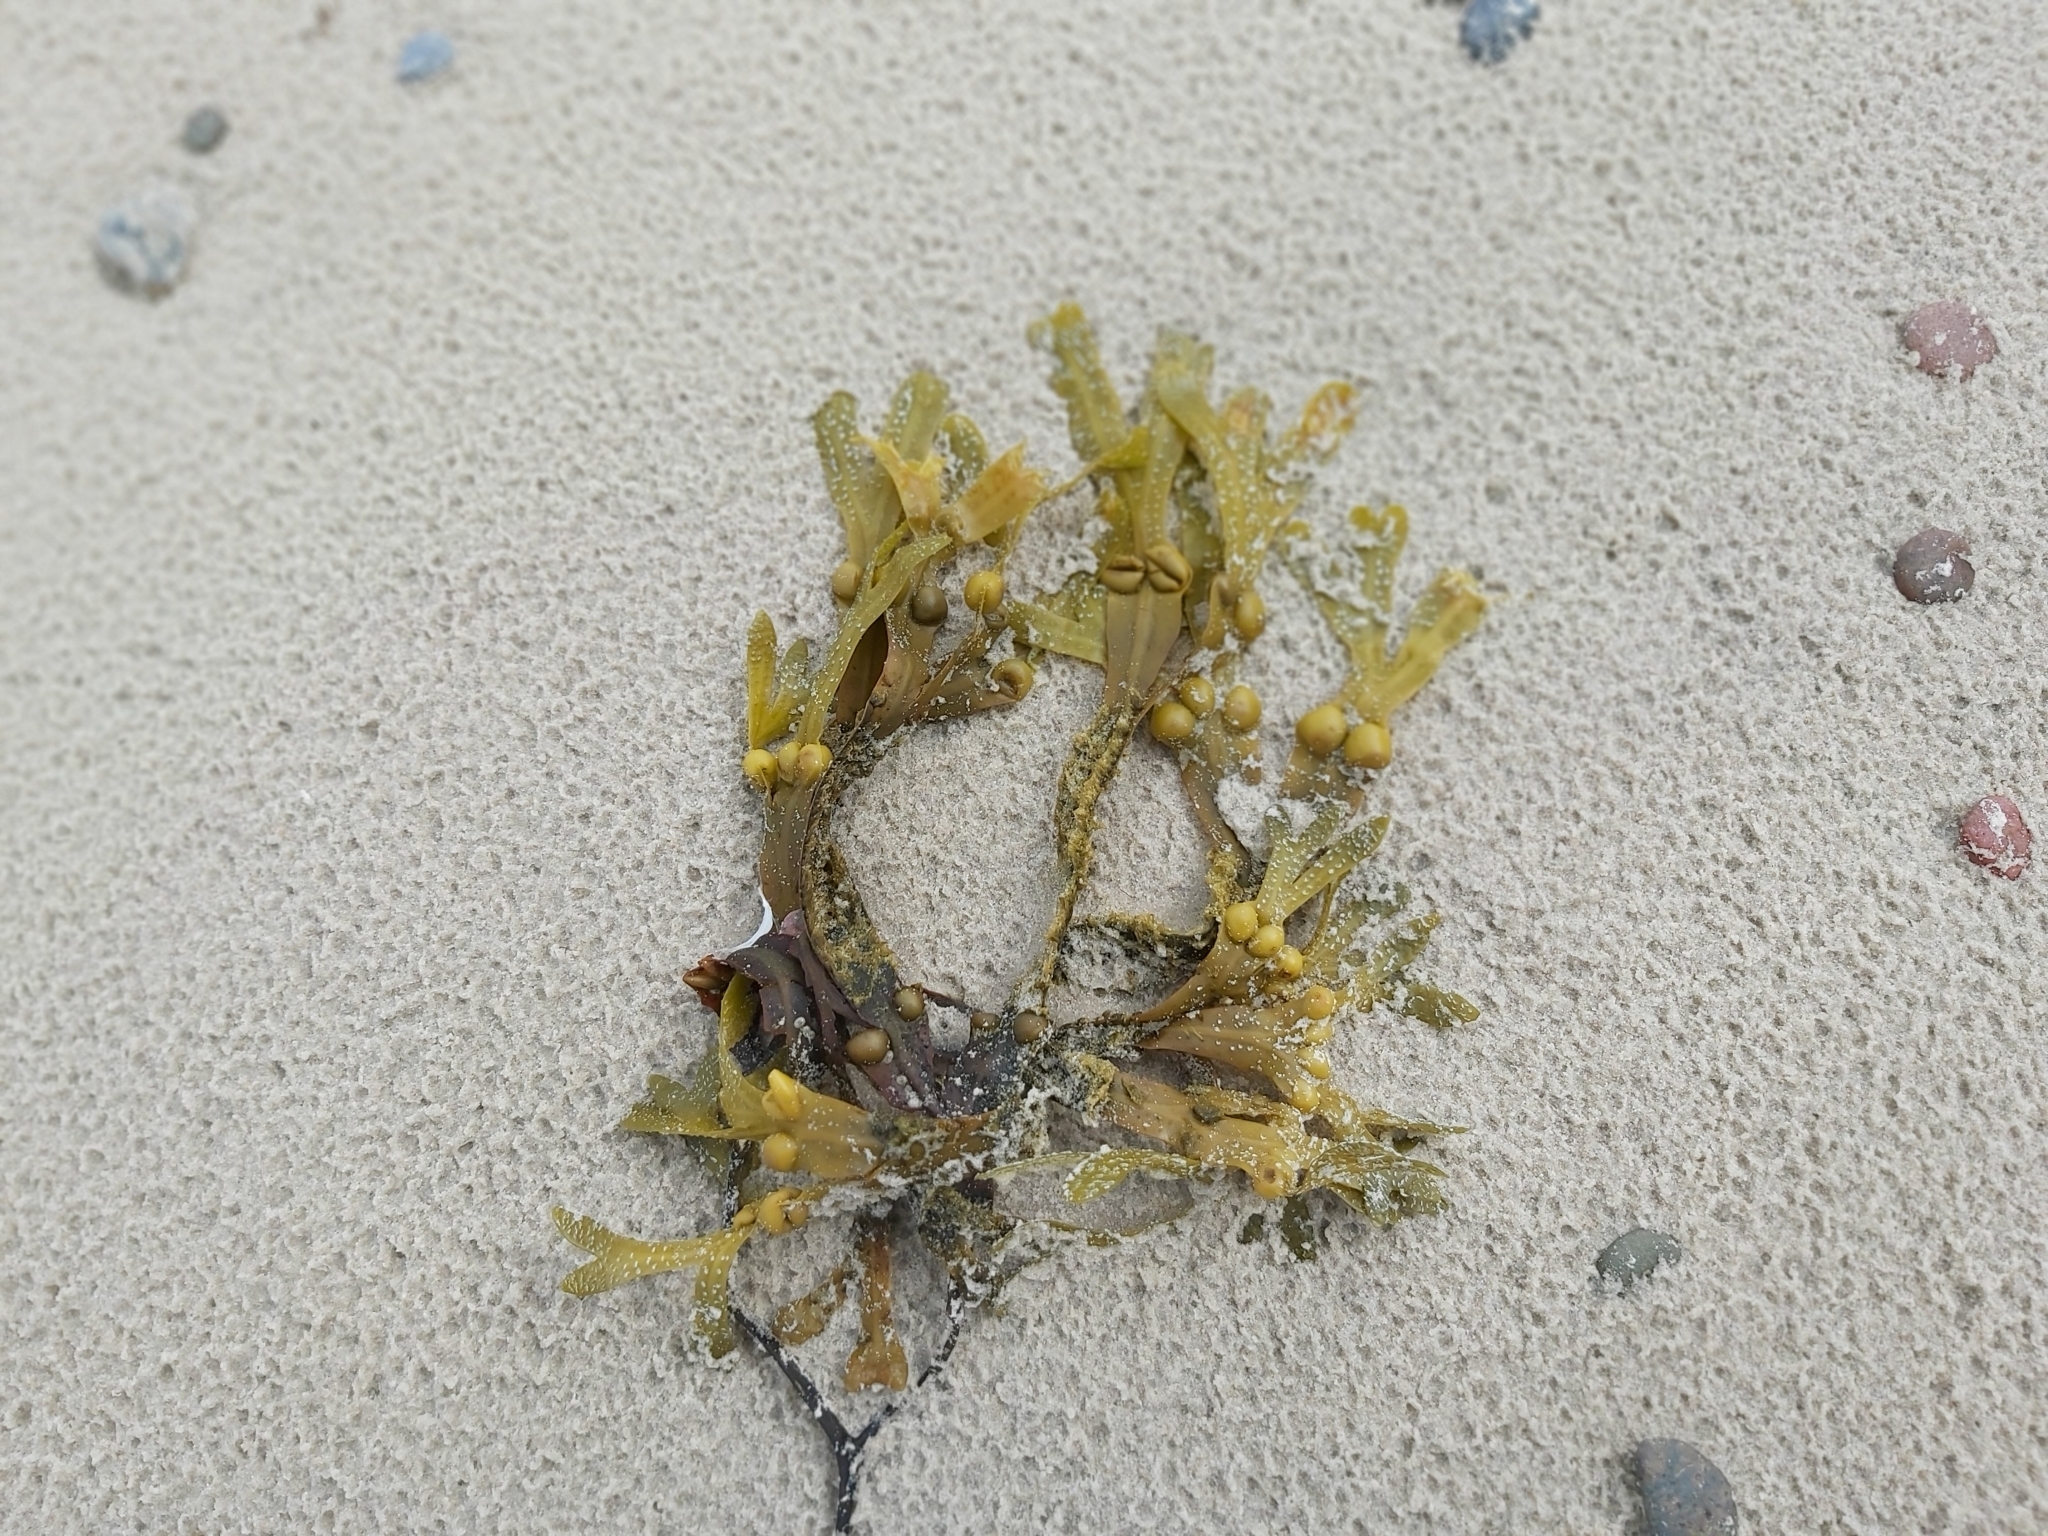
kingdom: Chromista
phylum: Ochrophyta
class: Phaeophyceae
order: Fucales
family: Fucaceae
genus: Fucus
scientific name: Fucus vesiculosus
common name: Bladder wrack
